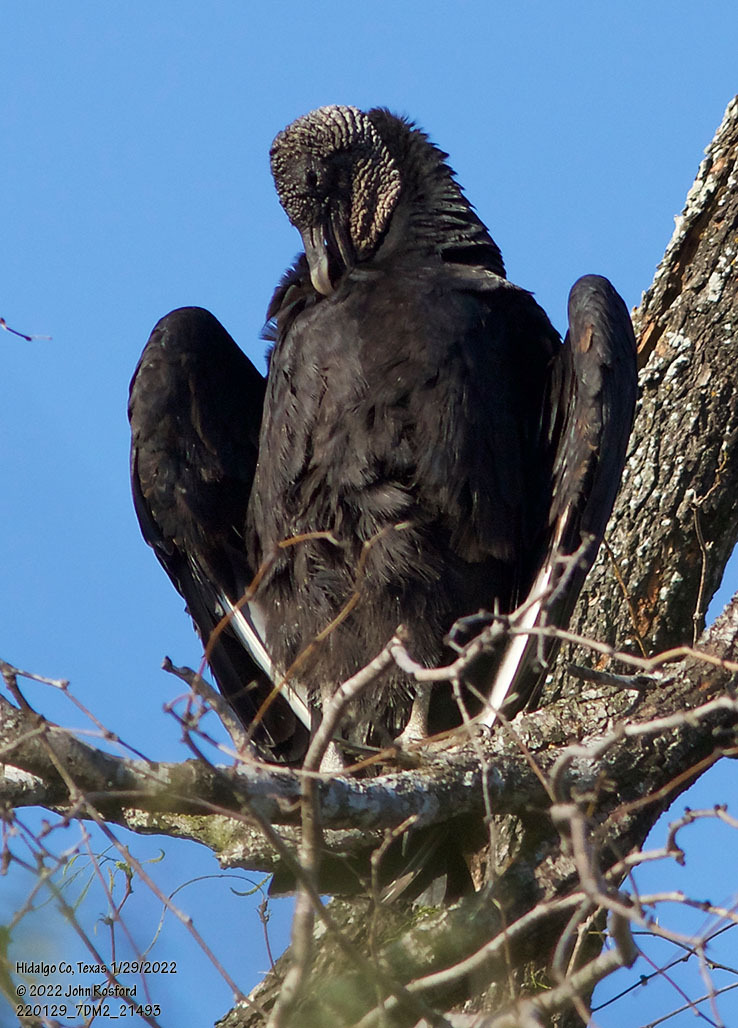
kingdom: Animalia
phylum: Chordata
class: Aves
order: Accipitriformes
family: Cathartidae
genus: Coragyps
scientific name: Coragyps atratus
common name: Black vulture
